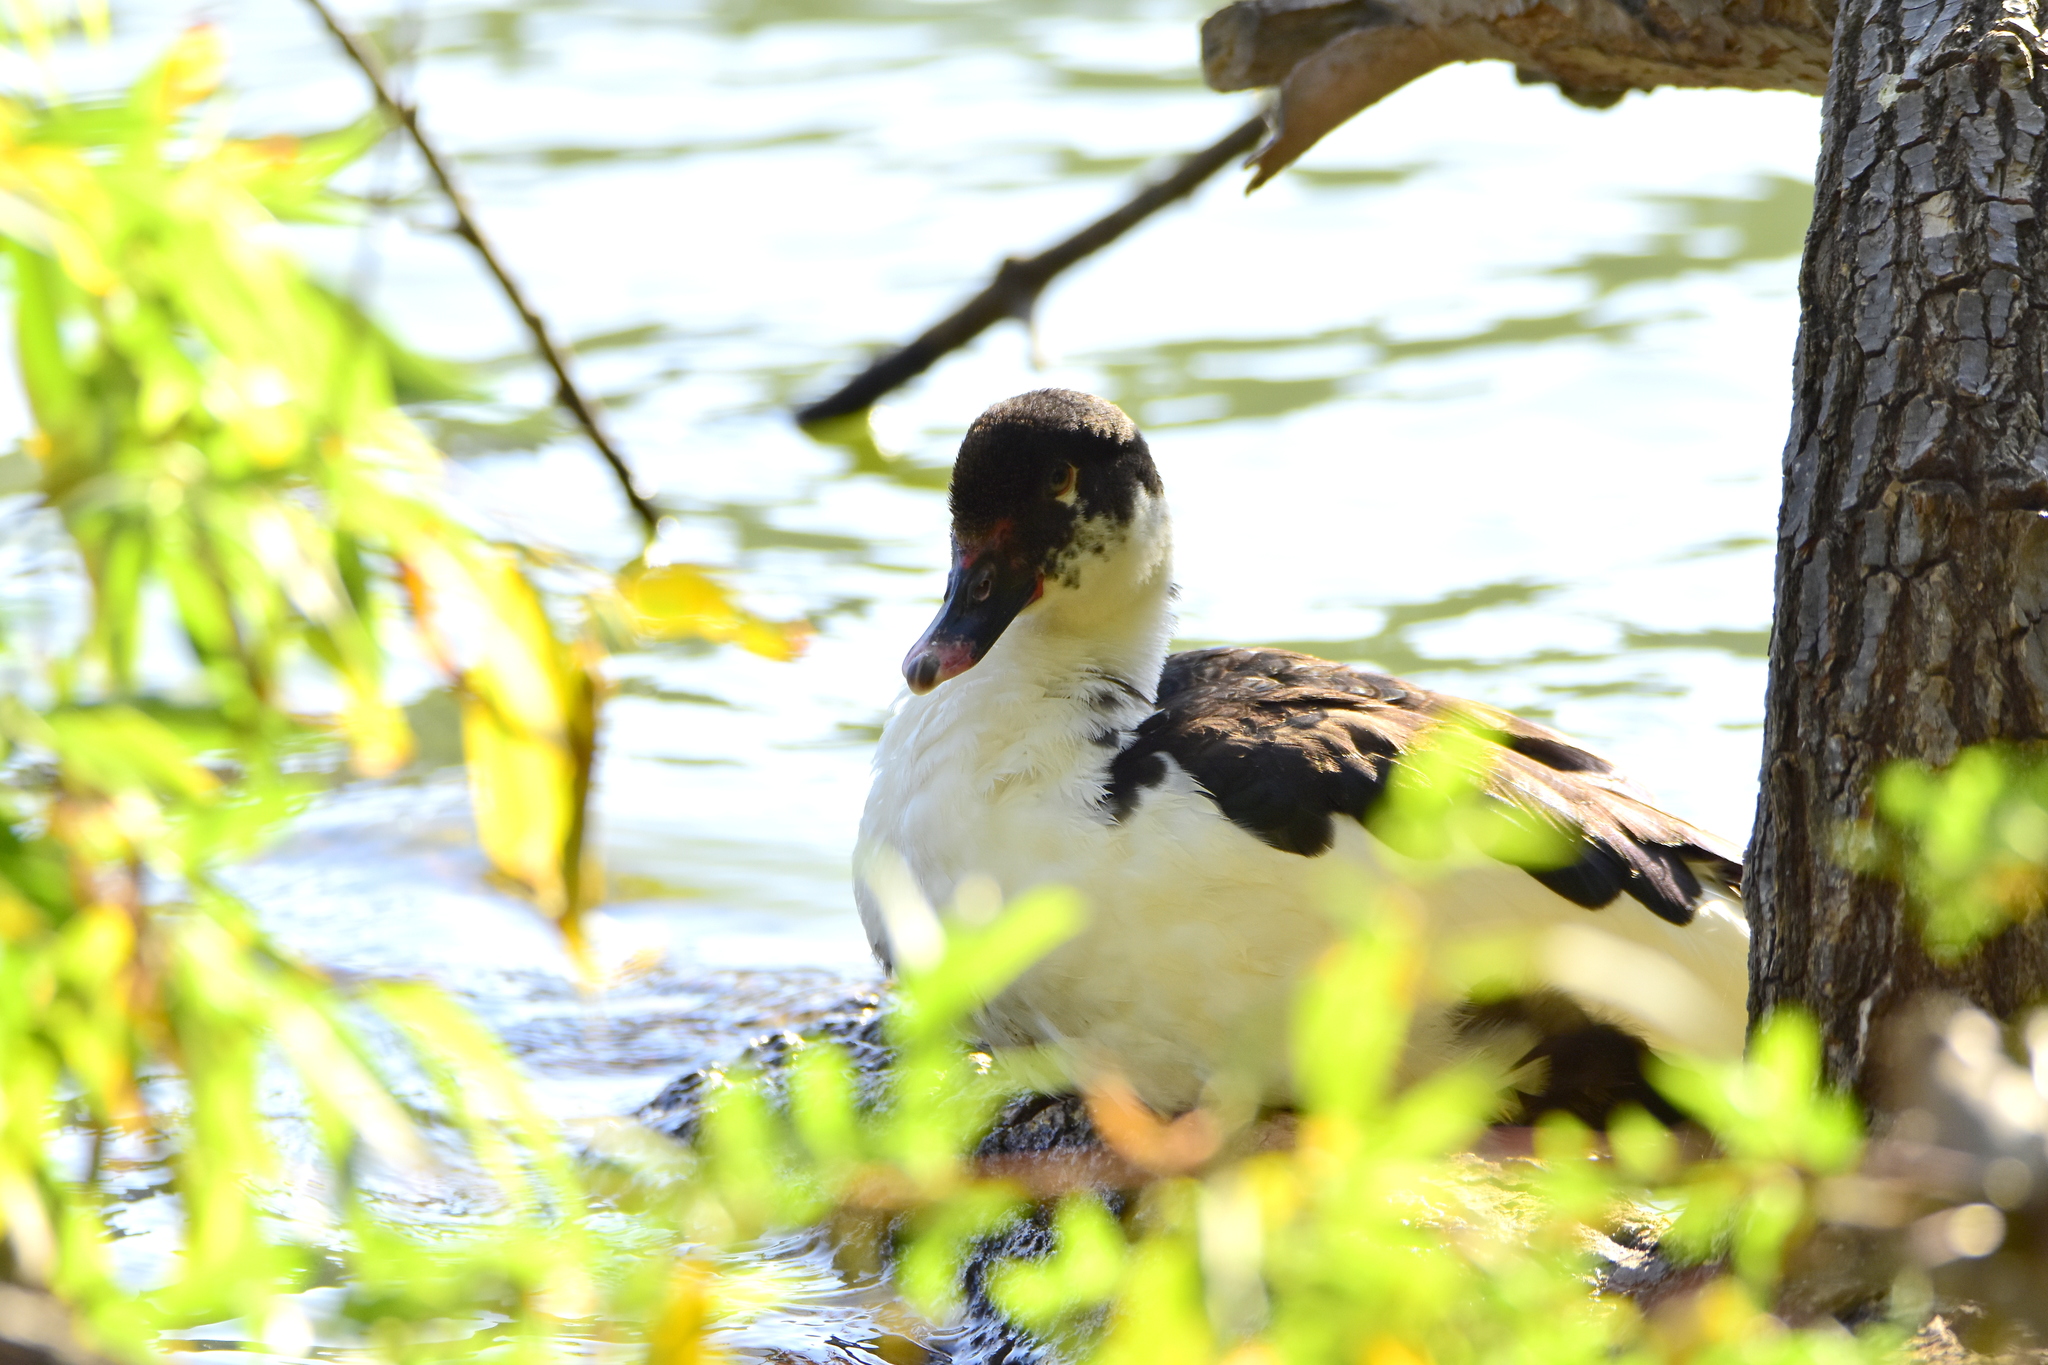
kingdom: Animalia
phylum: Chordata
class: Aves
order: Anseriformes
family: Anatidae
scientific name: Anatidae
